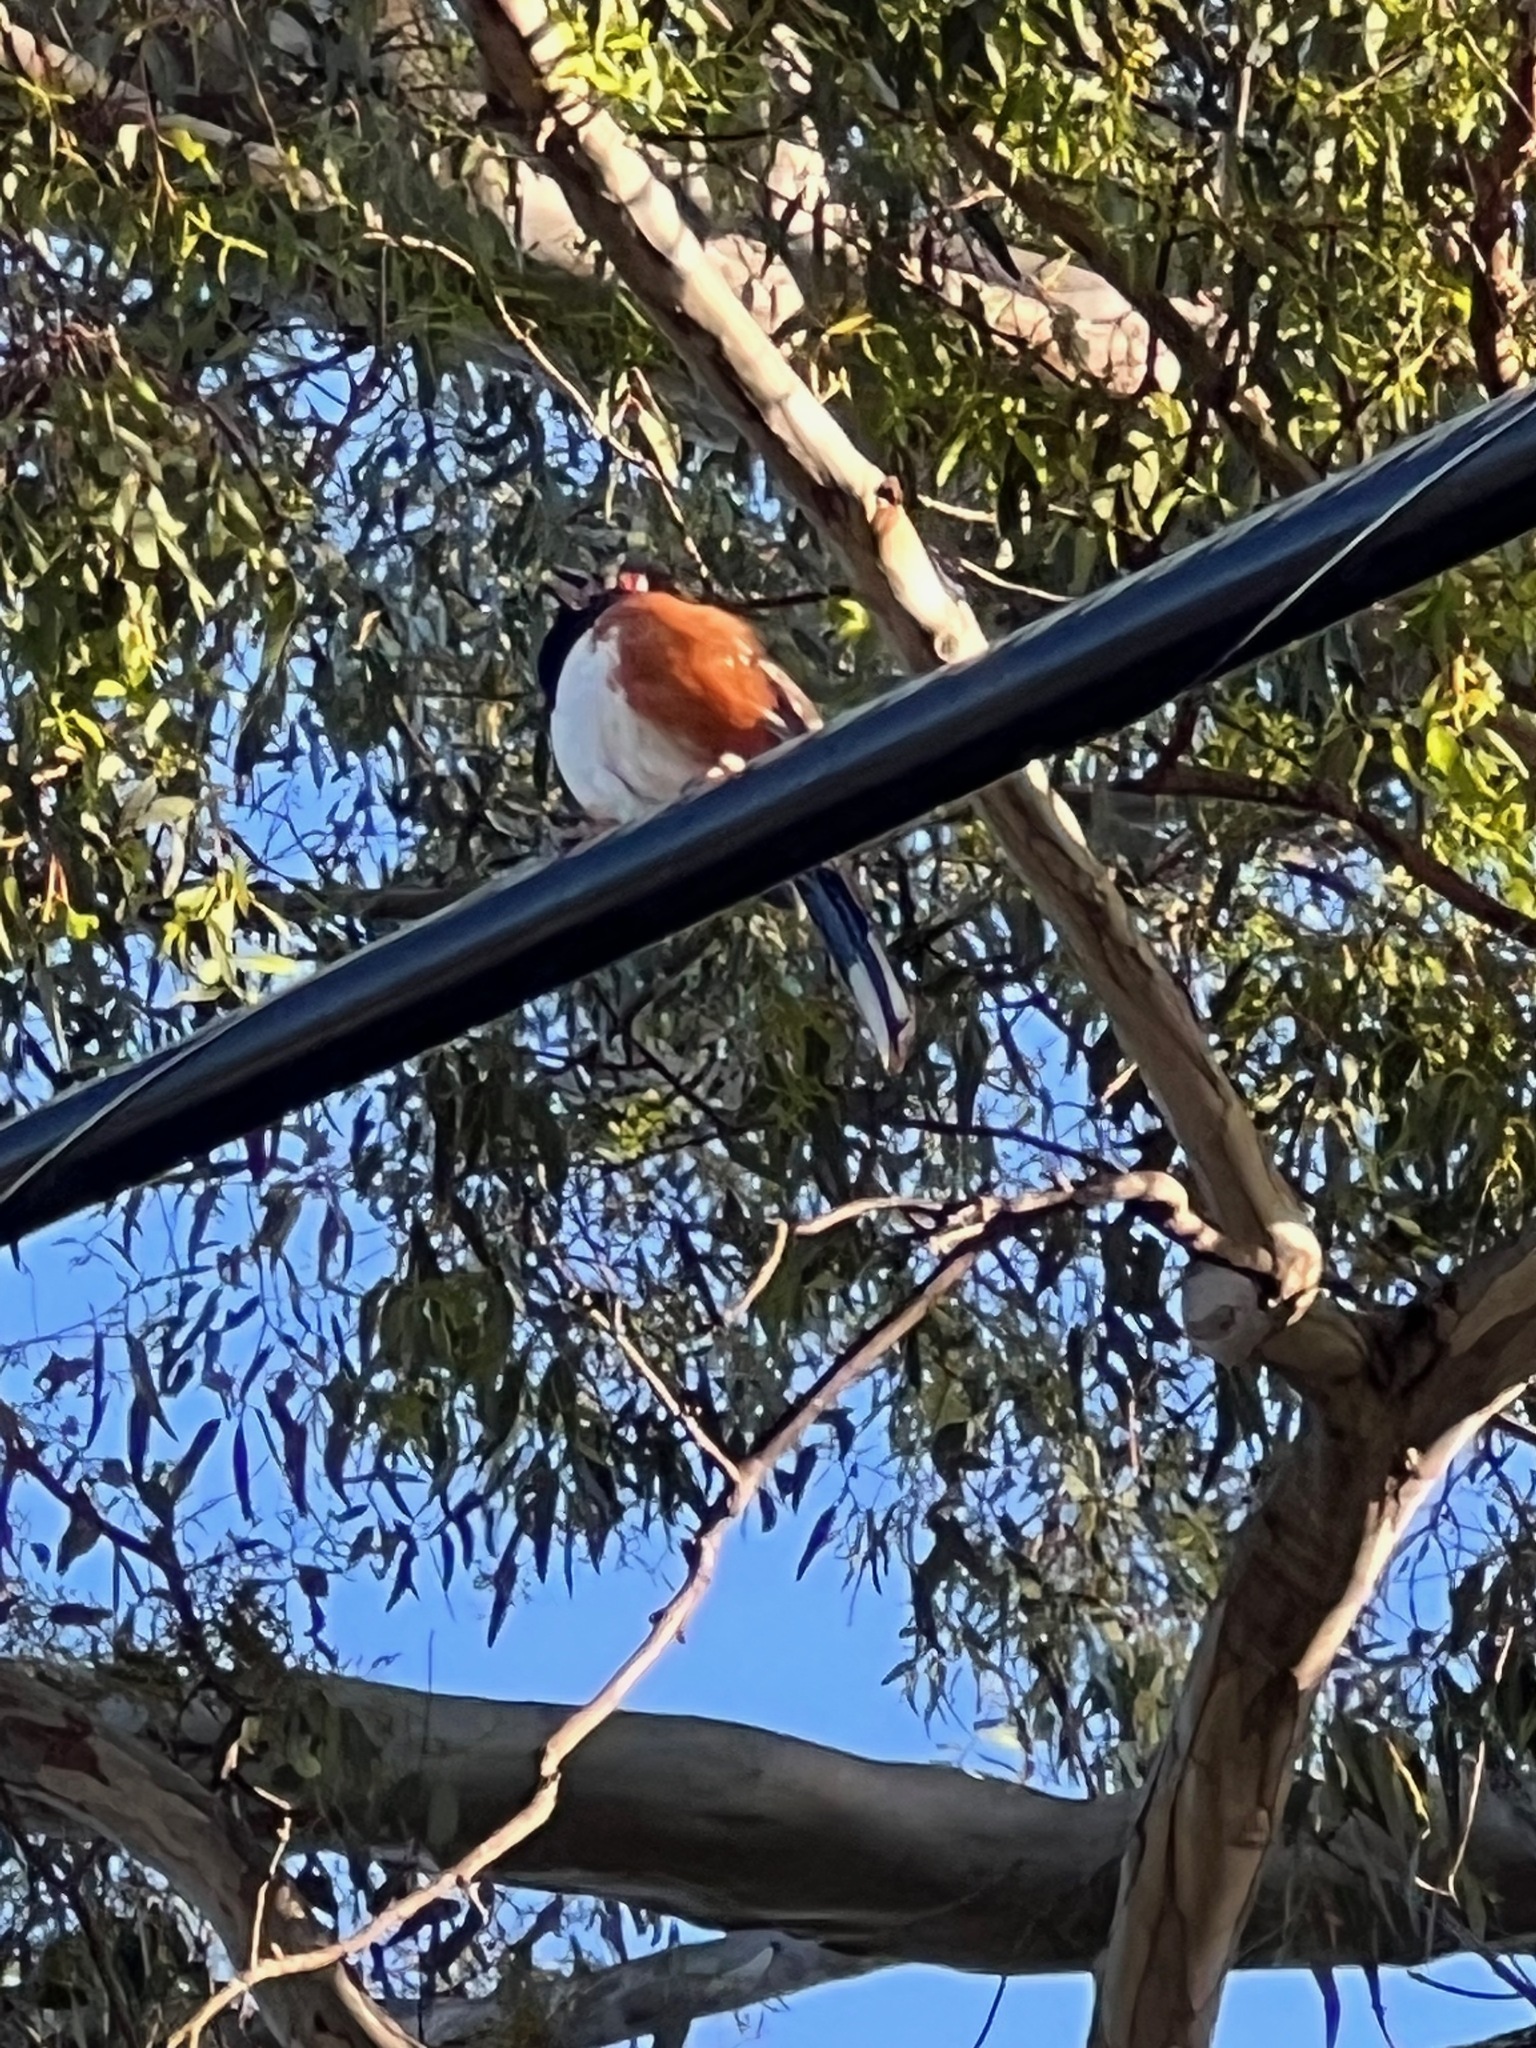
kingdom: Animalia
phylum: Chordata
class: Aves
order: Passeriformes
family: Passerellidae
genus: Pipilo
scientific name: Pipilo maculatus
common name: Spotted towhee
